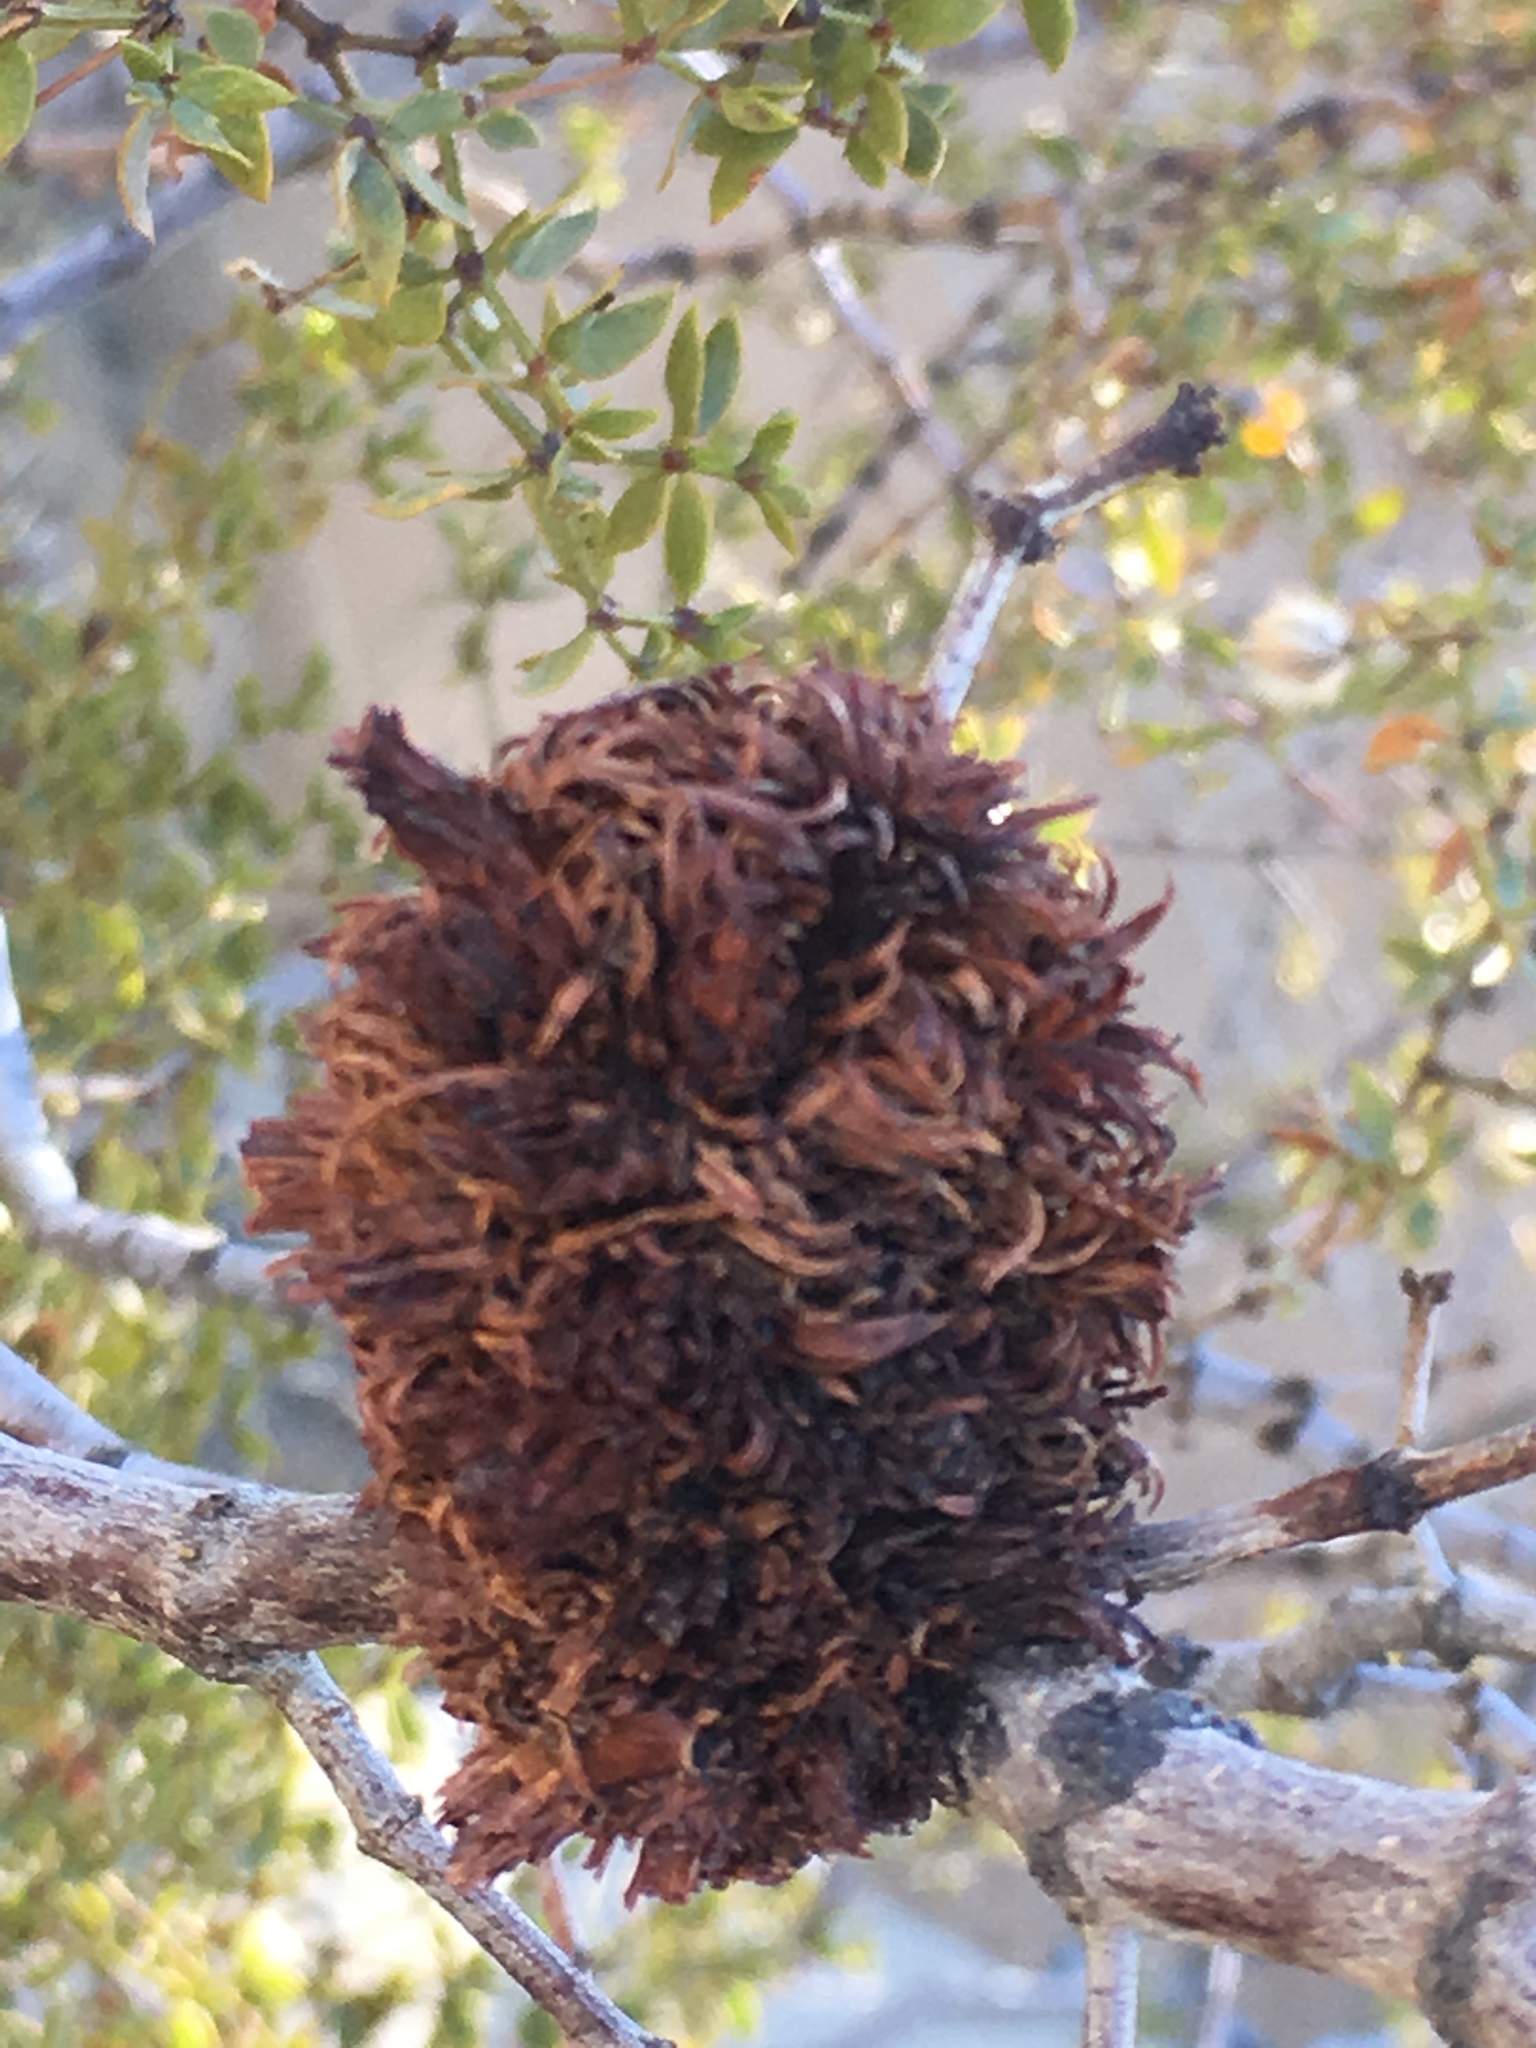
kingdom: Animalia
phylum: Arthropoda
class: Insecta
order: Diptera
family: Cecidomyiidae
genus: Asphondylia
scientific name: Asphondylia auripila
